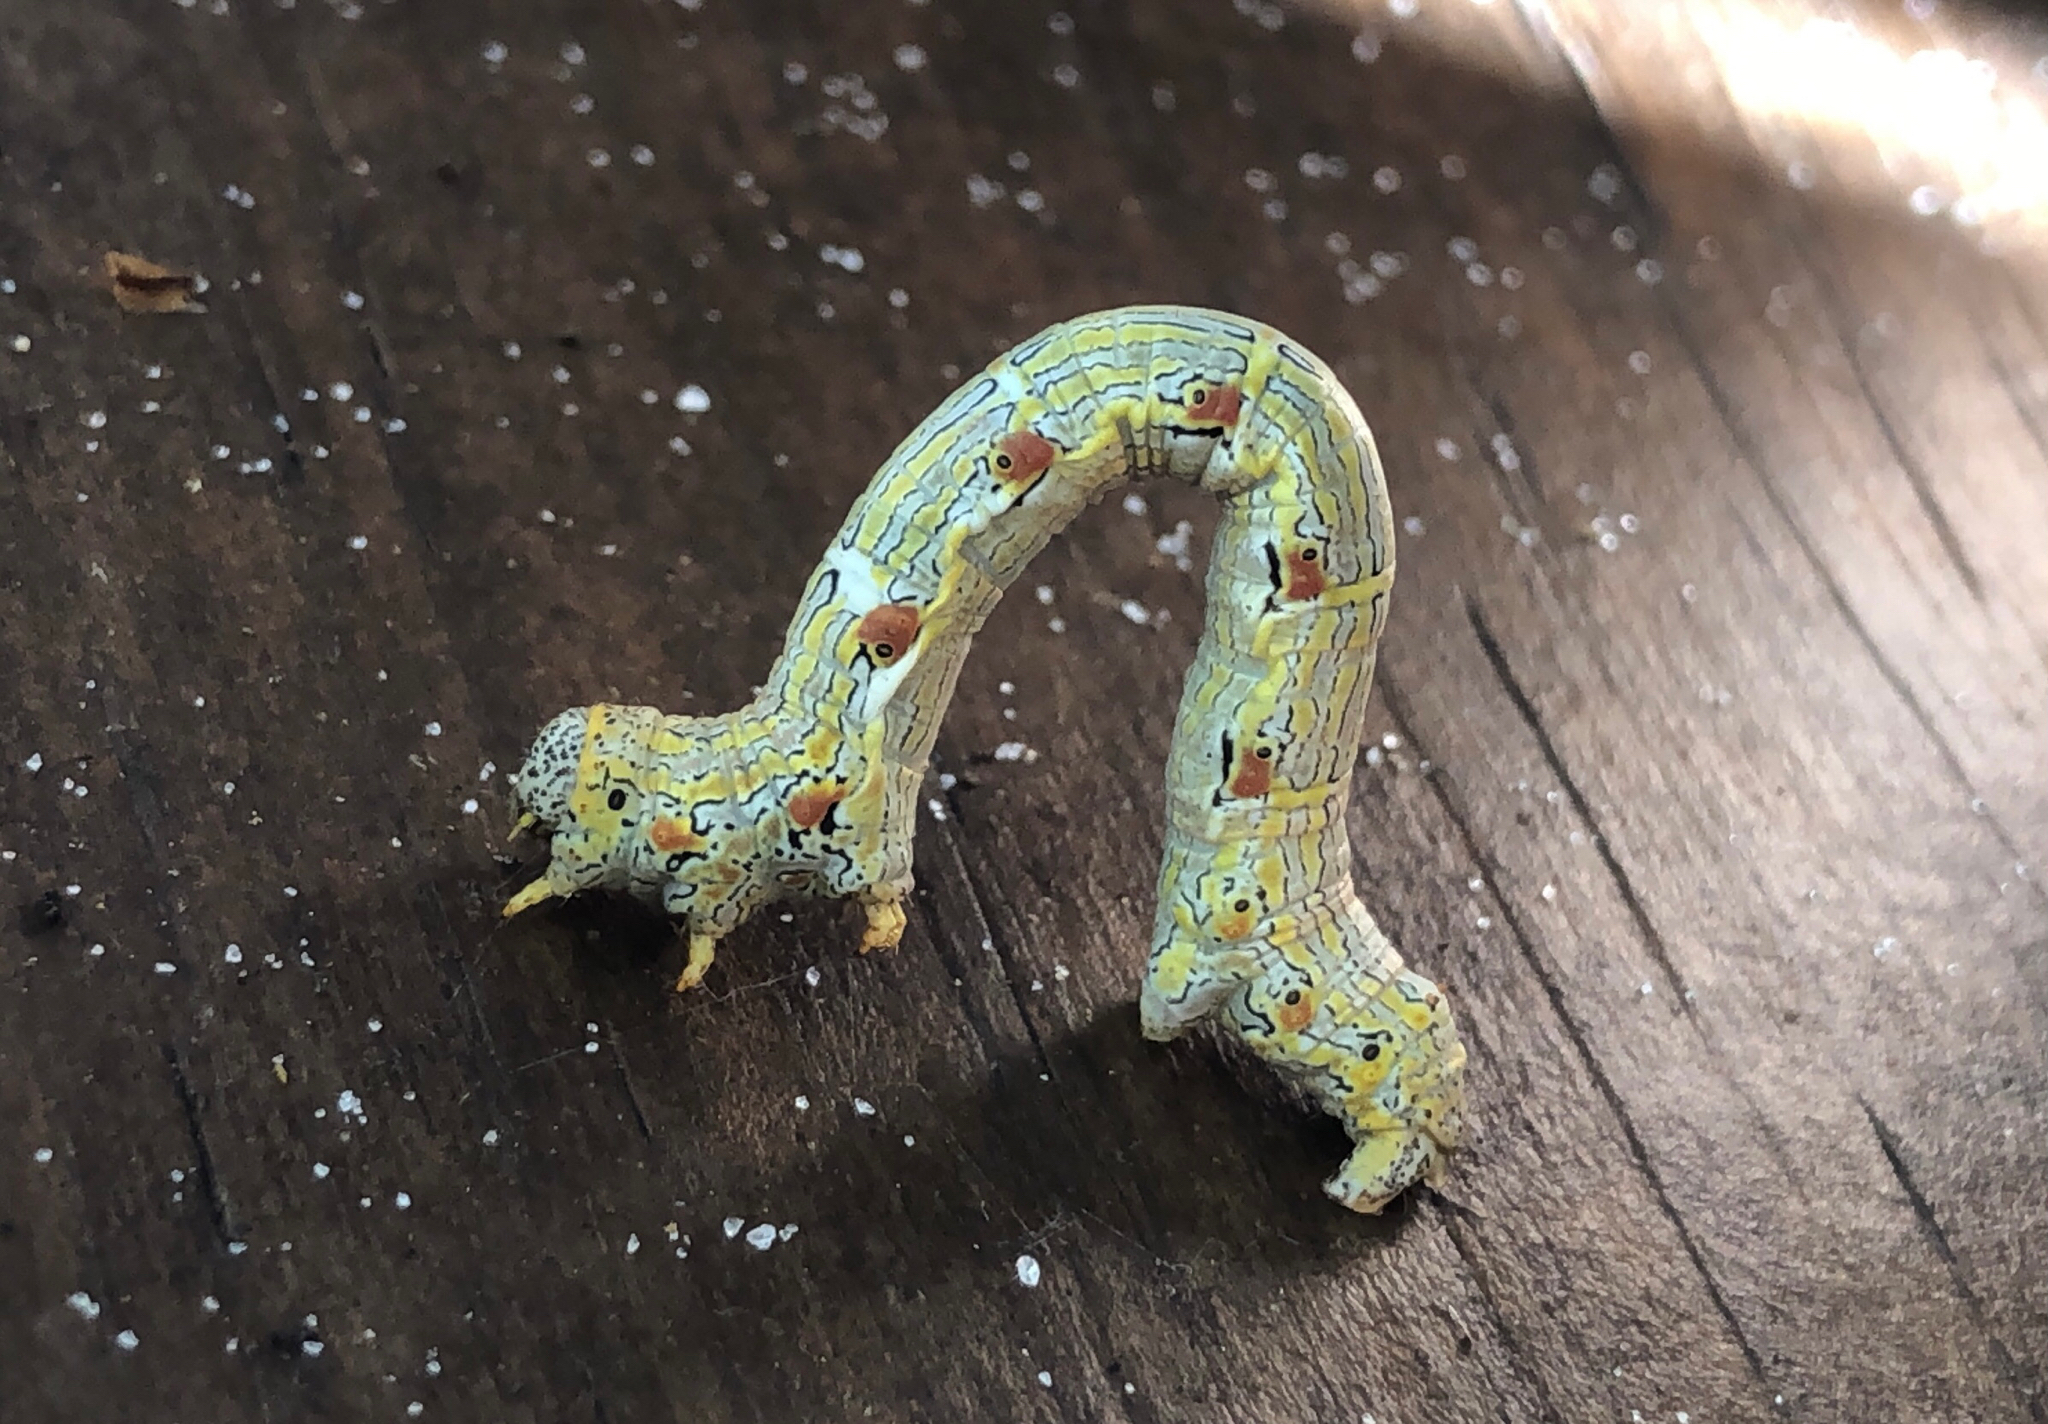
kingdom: Animalia
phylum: Arthropoda
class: Insecta
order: Lepidoptera
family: Geometridae
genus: Lycia
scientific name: Lycia ypsilon
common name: Wooly gray
